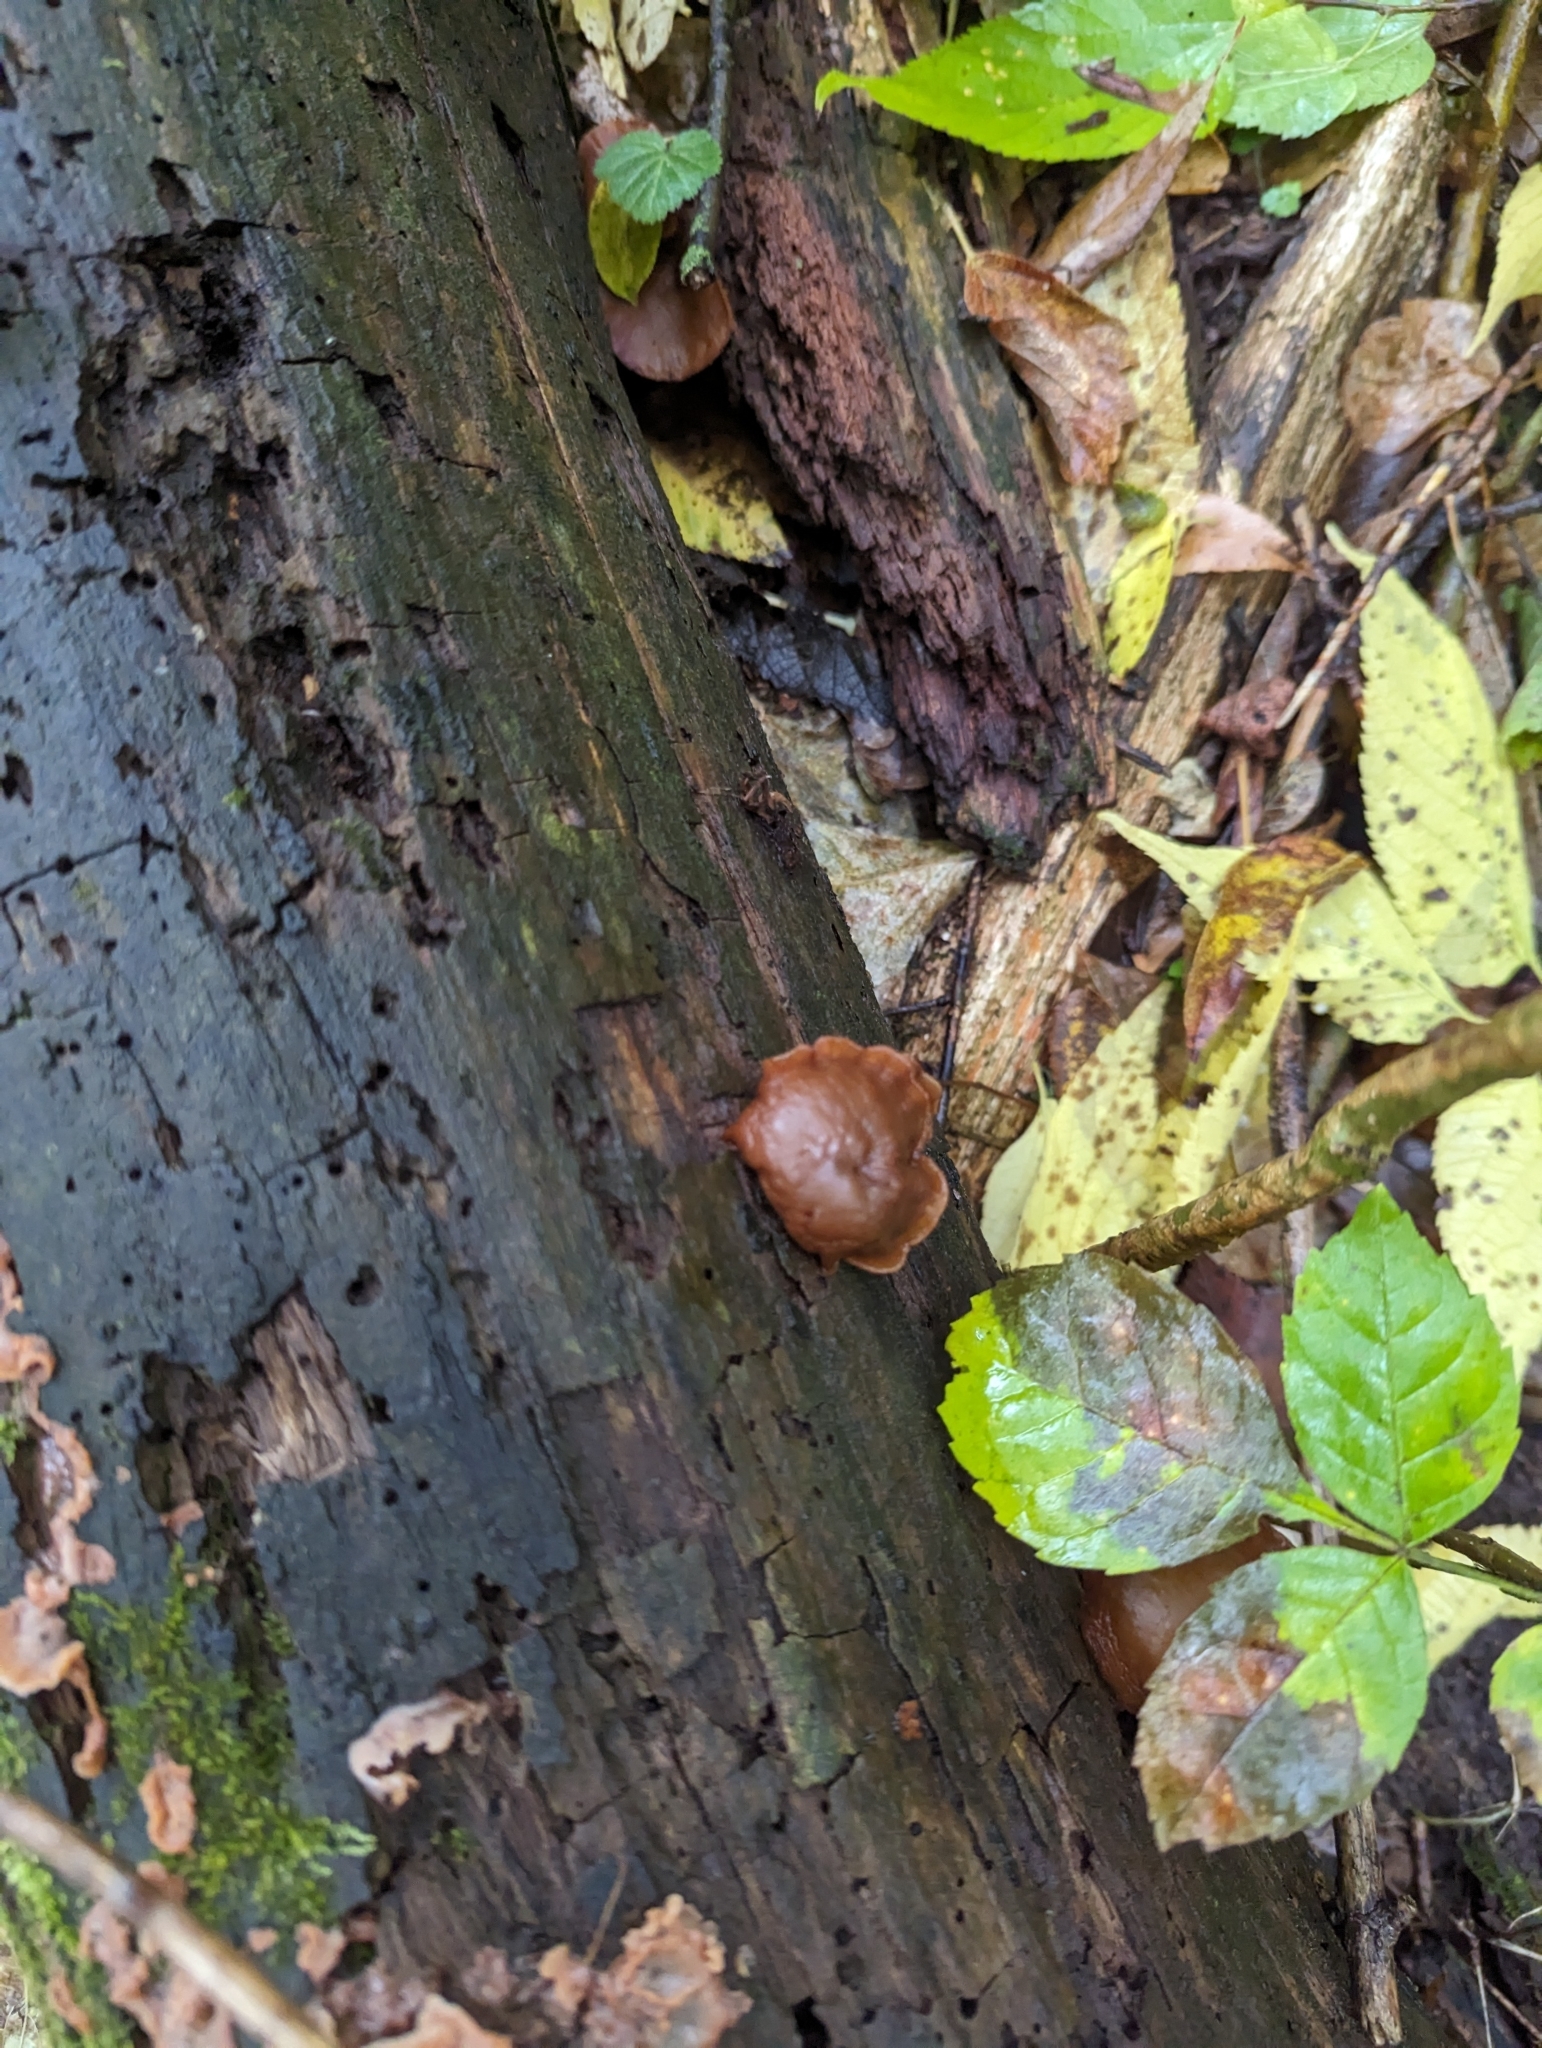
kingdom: Fungi
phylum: Basidiomycota
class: Agaricomycetes
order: Agaricales
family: Hymenogastraceae
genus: Galerina
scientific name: Galerina marginata
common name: Funeral bell
